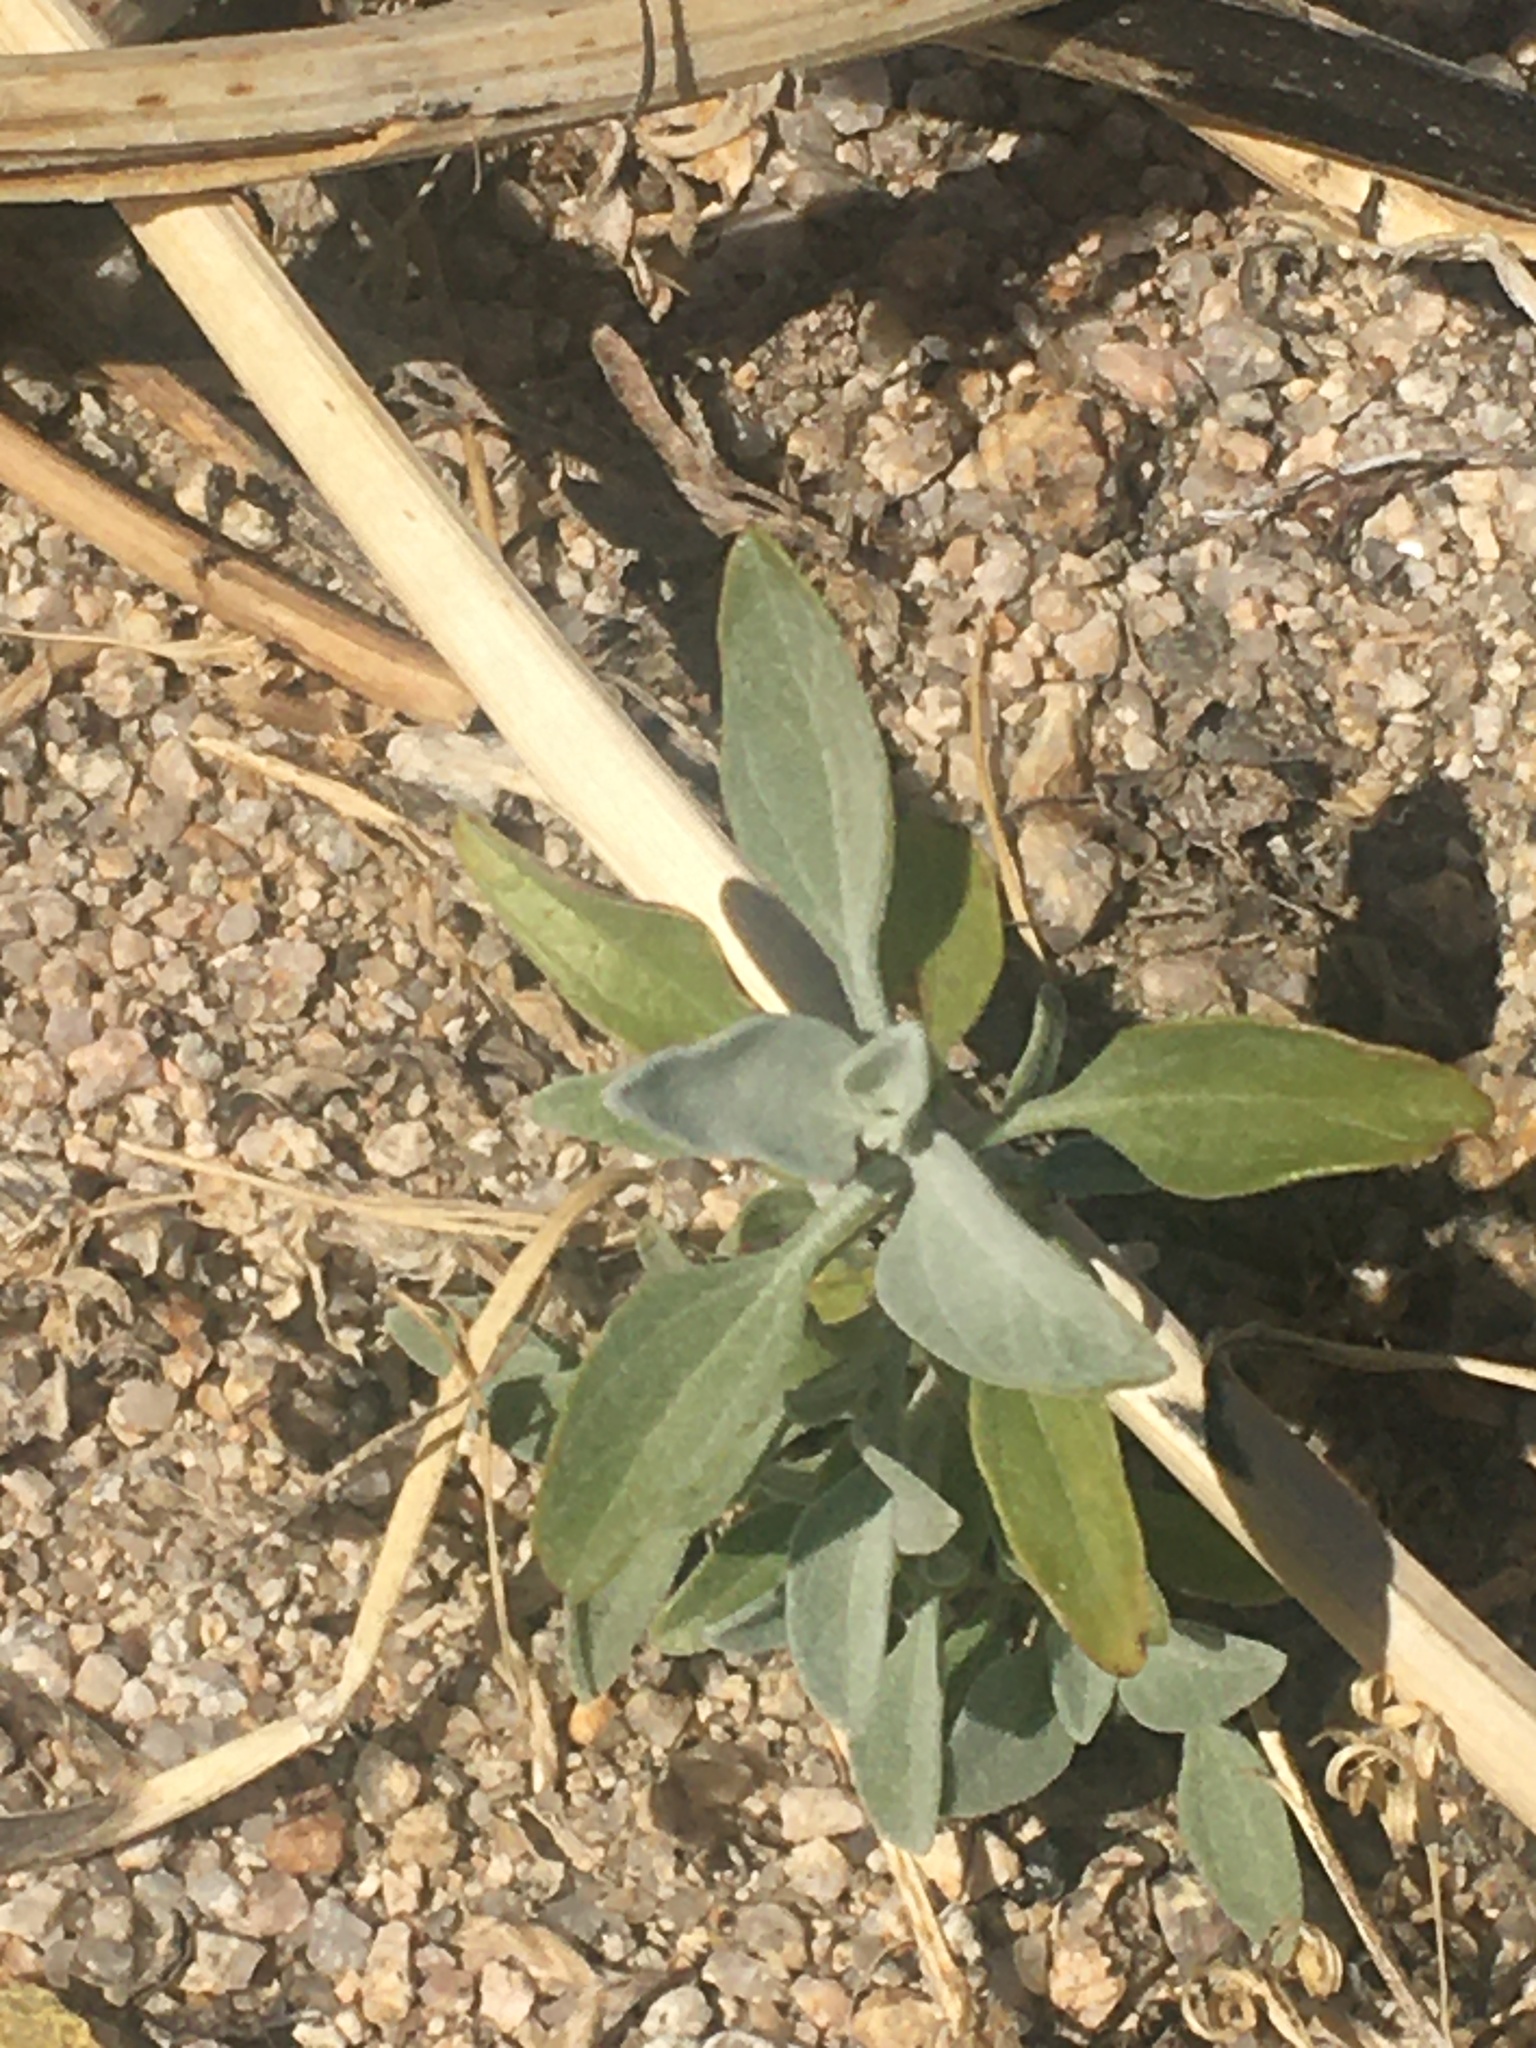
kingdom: Plantae
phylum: Tracheophyta
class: Magnoliopsida
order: Asterales
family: Asteraceae
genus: Encelia
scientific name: Encelia farinosa
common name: Brittlebush
